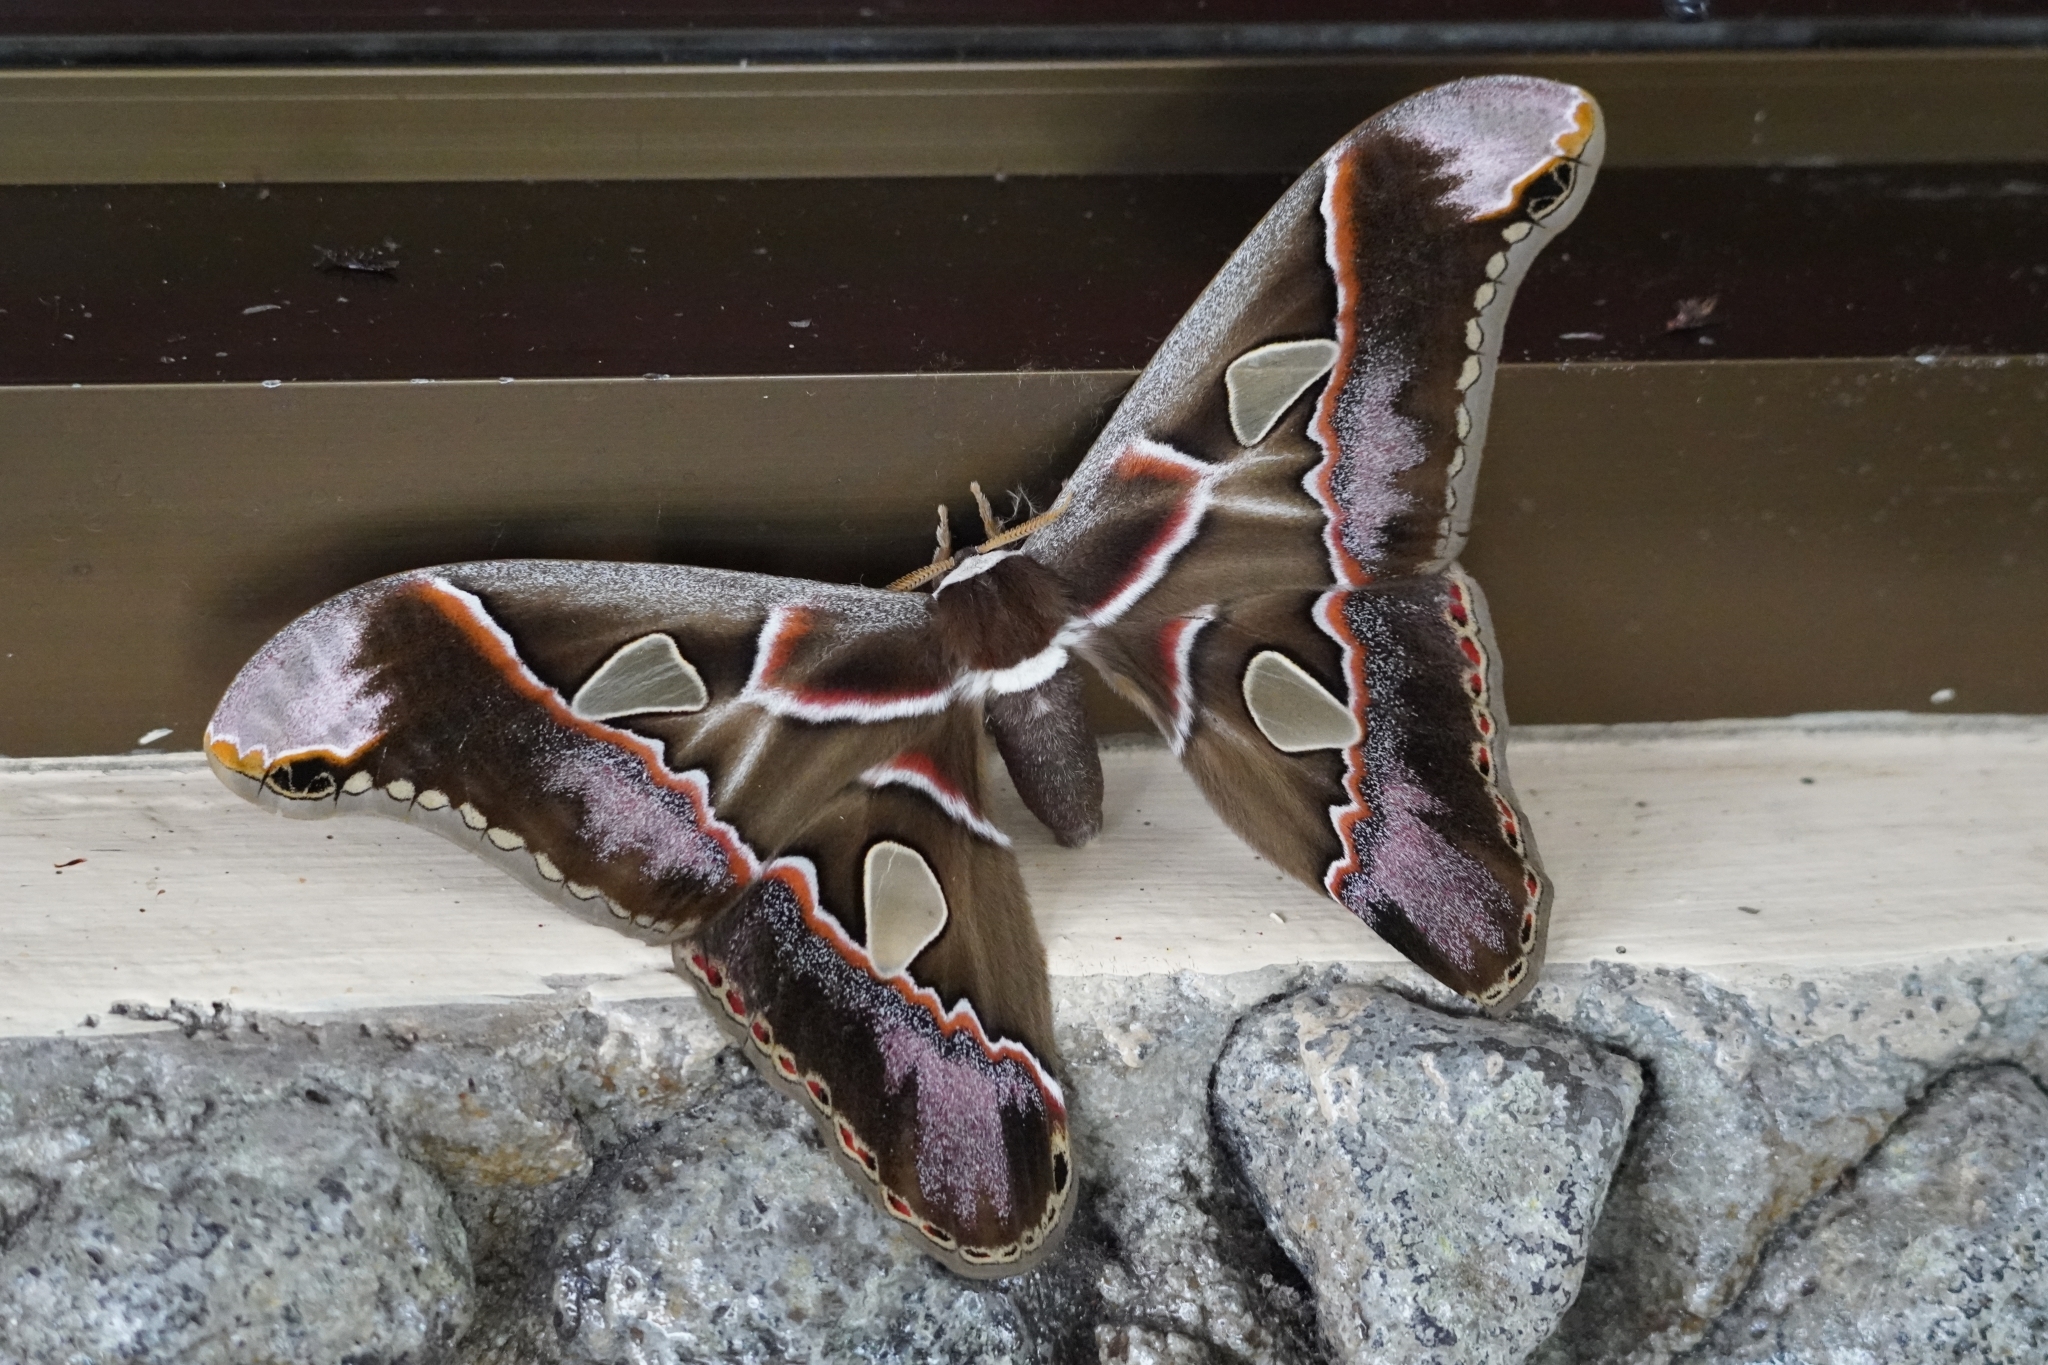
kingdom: Animalia
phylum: Arthropoda
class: Insecta
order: Lepidoptera
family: Saturniidae
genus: Rothschildia
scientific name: Rothschildia lebeau
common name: Lebeau's rothschildia
